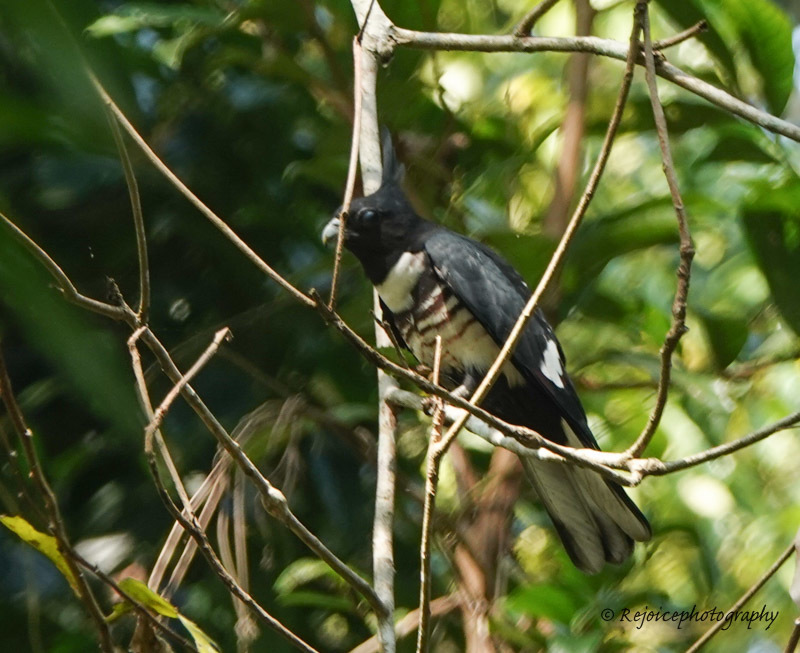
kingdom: Animalia
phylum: Chordata
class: Aves
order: Accipitriformes
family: Accipitridae
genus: Aviceda
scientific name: Aviceda leuphotes
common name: Black baza
